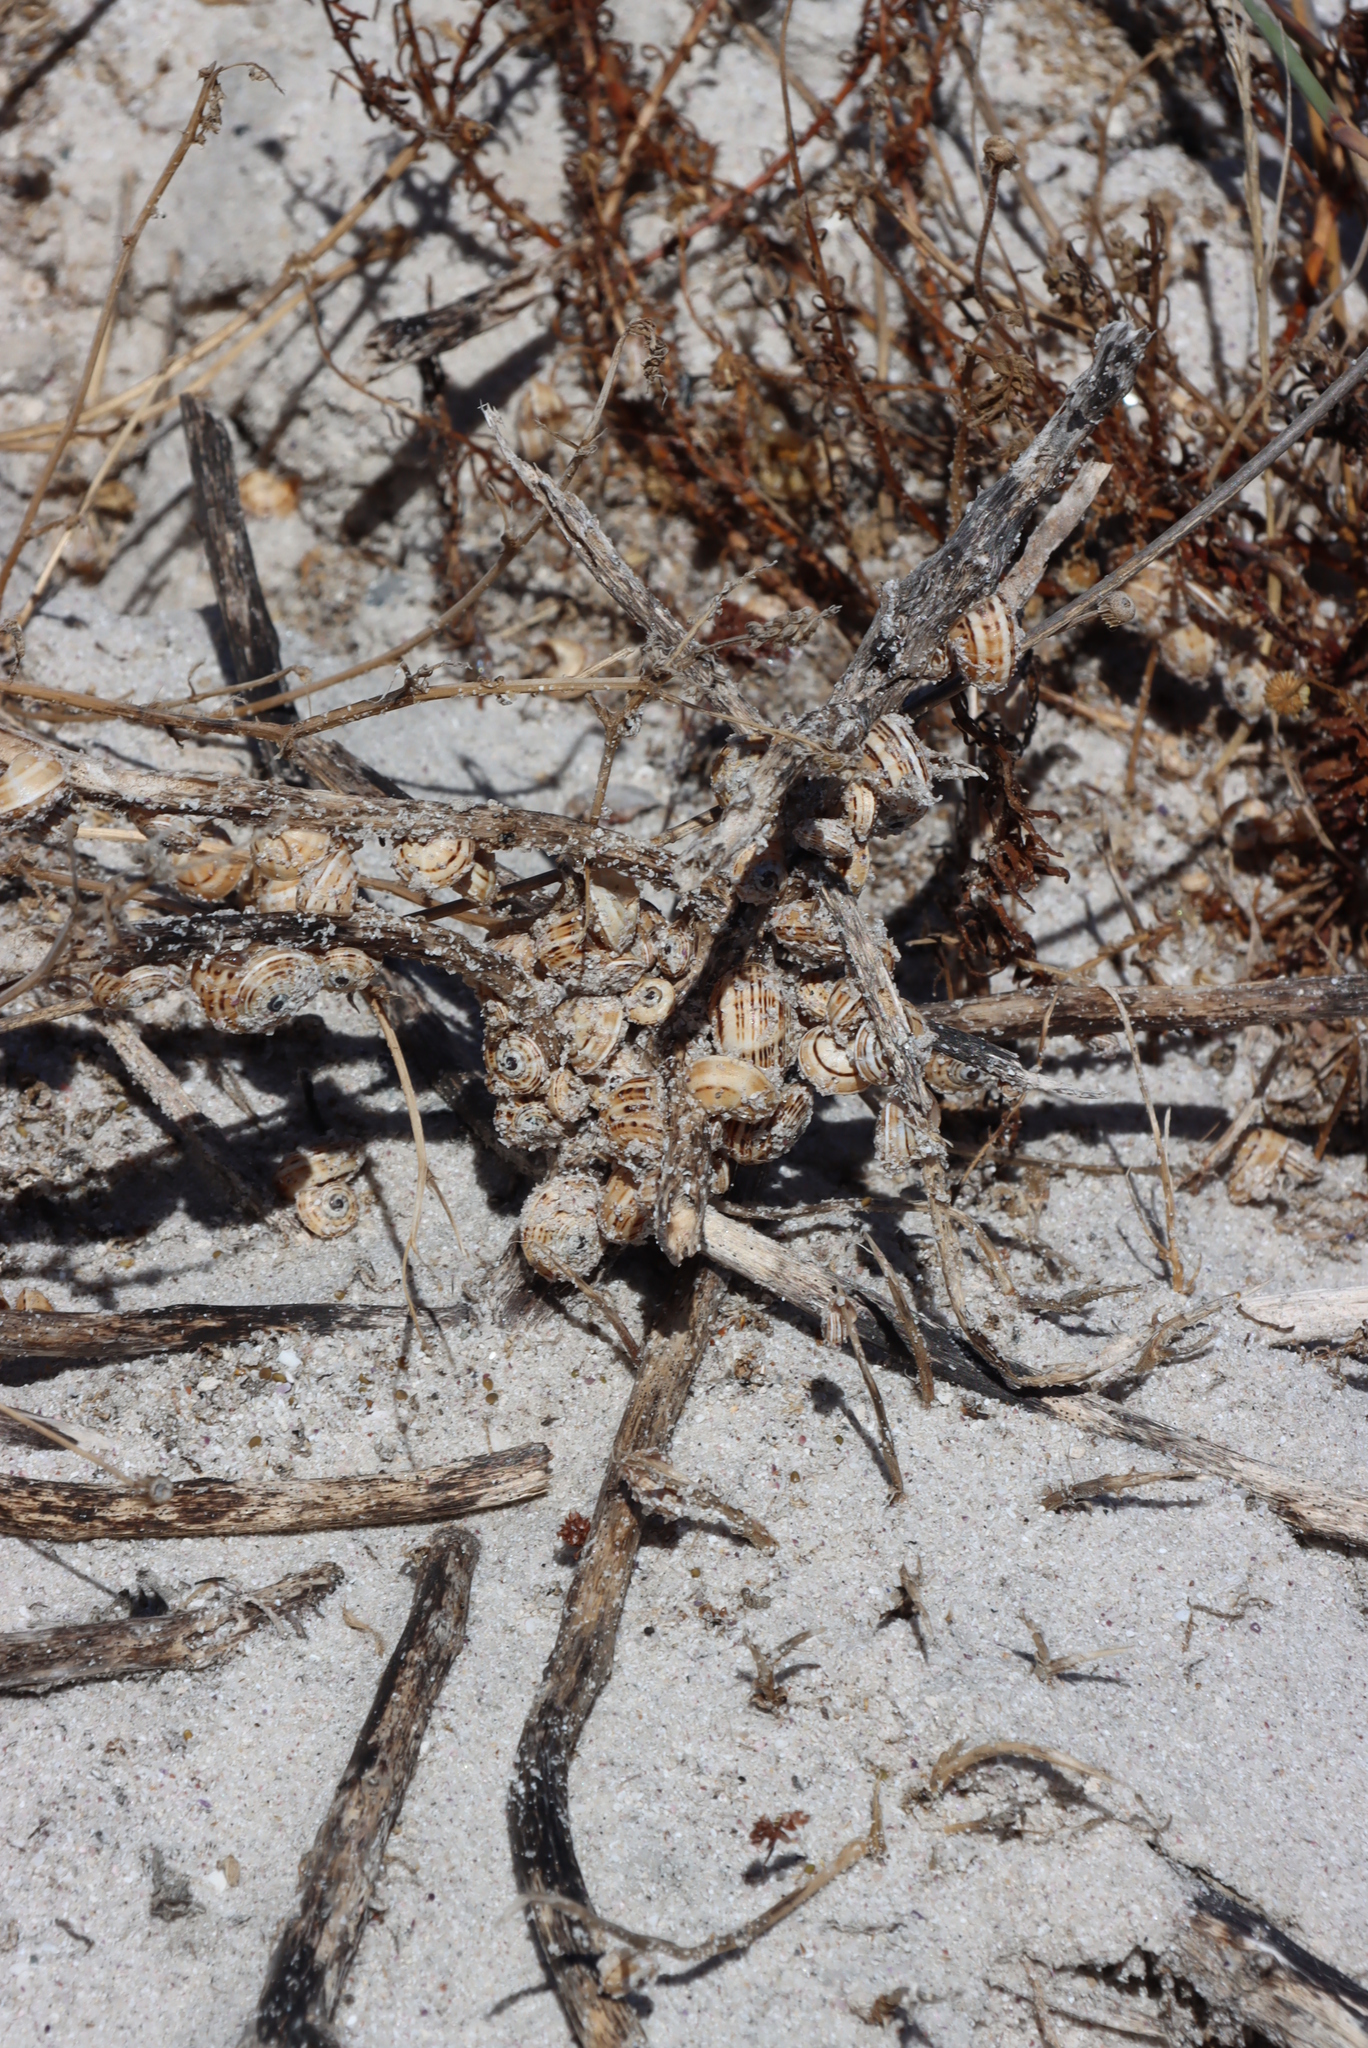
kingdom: Animalia
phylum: Mollusca
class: Gastropoda
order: Stylommatophora
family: Helicidae
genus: Theba
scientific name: Theba pisana
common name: White snail
